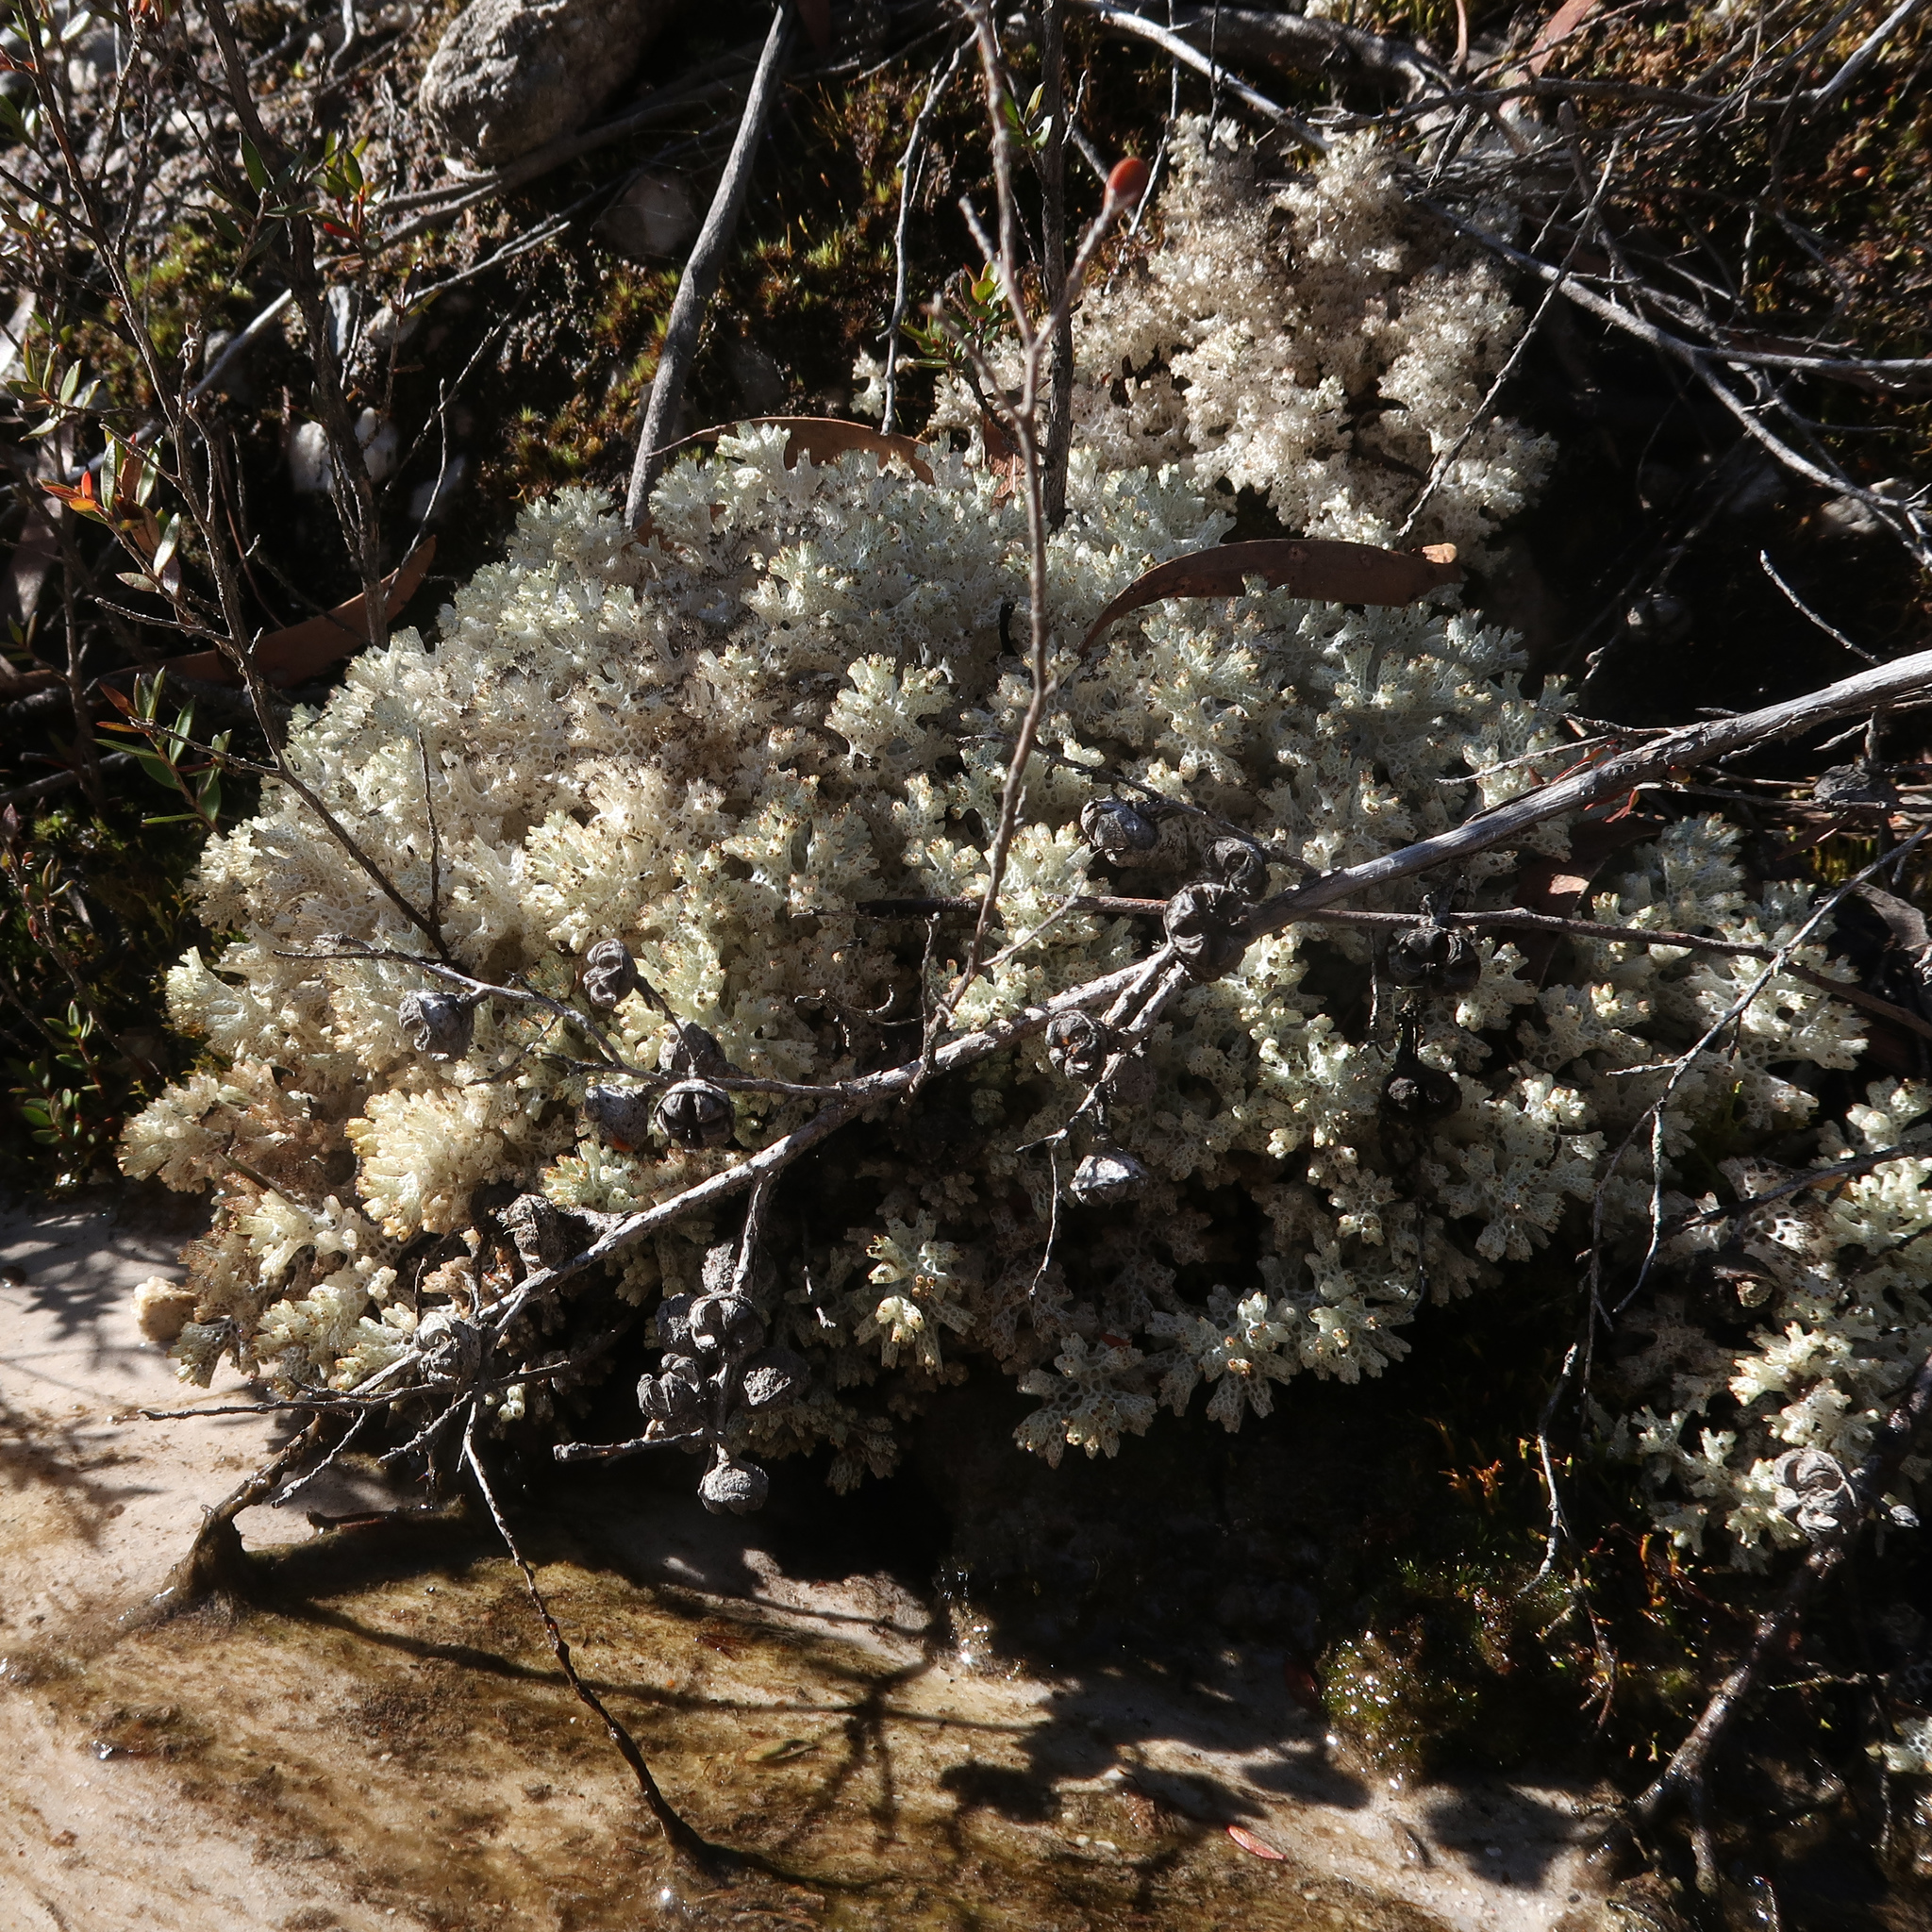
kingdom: Fungi
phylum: Ascomycota
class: Lecanoromycetes
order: Lecanorales
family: Cladoniaceae
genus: Pulchrocladia
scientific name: Pulchrocladia retipora
